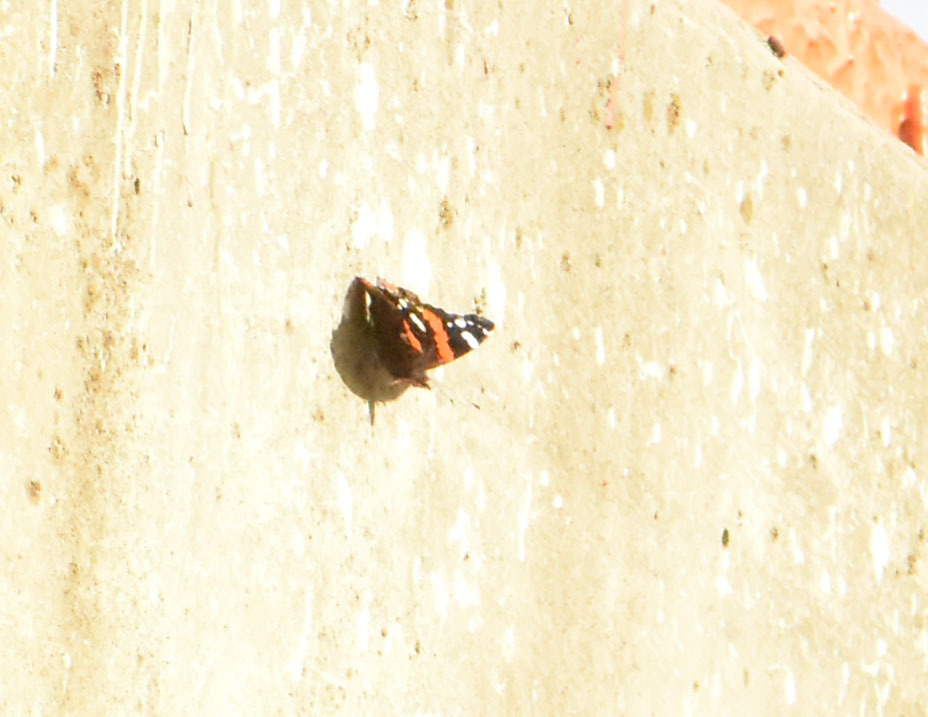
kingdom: Animalia
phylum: Arthropoda
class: Insecta
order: Lepidoptera
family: Nymphalidae
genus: Vanessa
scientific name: Vanessa atalanta
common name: Red admiral
